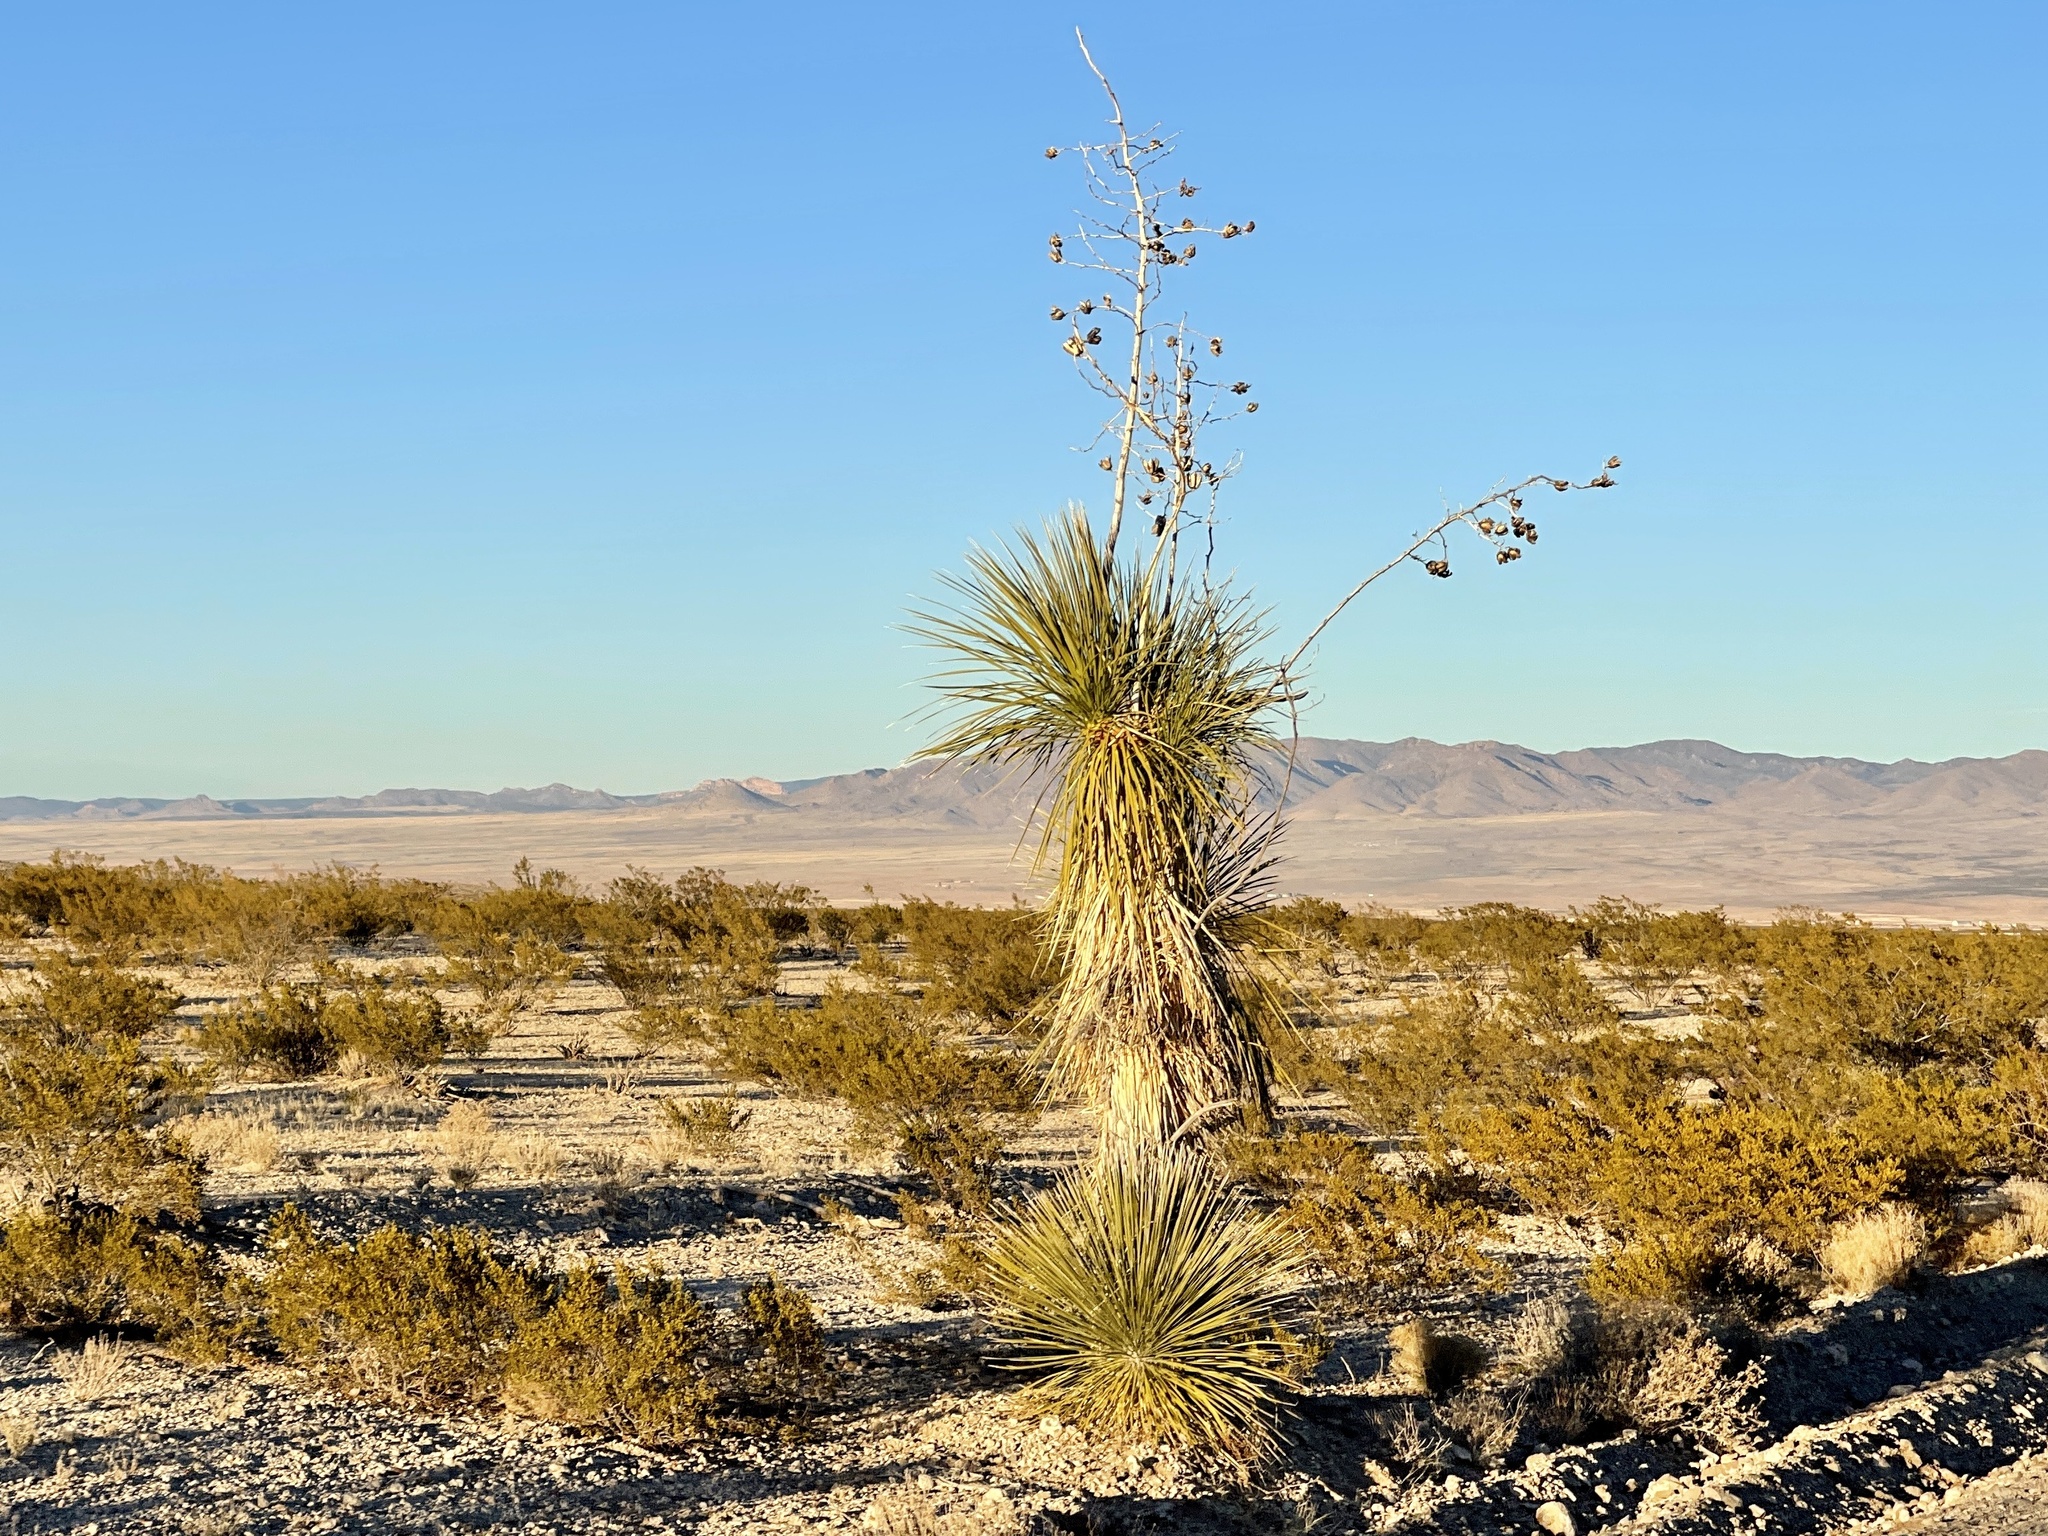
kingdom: Plantae
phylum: Tracheophyta
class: Liliopsida
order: Asparagales
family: Asparagaceae
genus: Yucca
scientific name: Yucca elata
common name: Palmella
